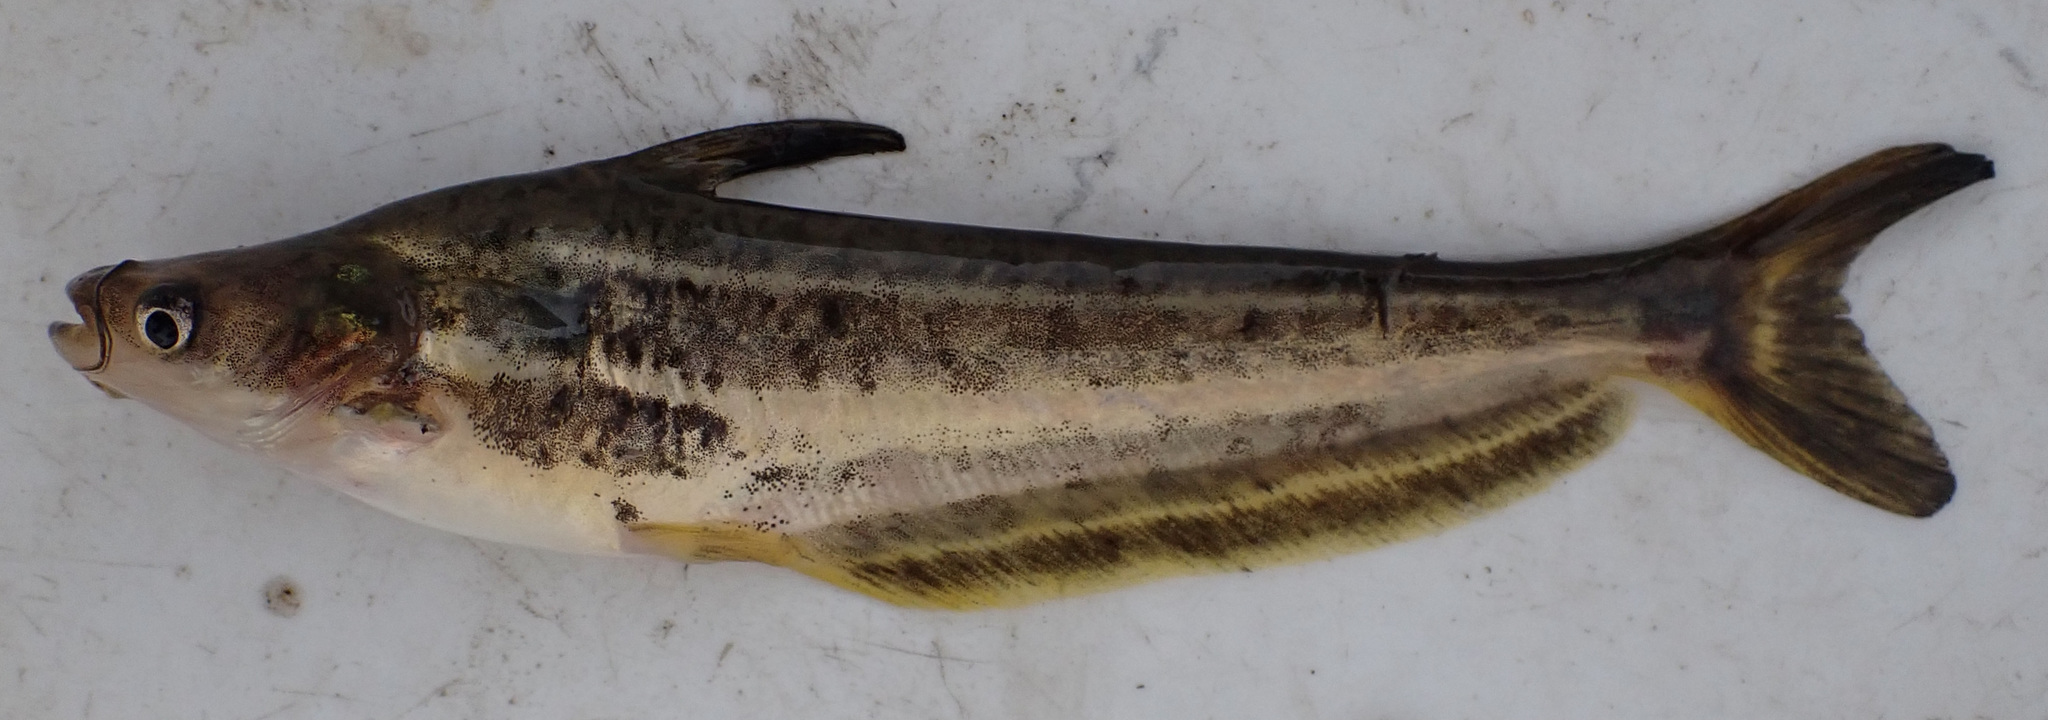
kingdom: Animalia
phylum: Chordata
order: Siluriformes
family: Schilbeidae
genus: Schilbe
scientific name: Schilbe intermedius
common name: Silver catfish
